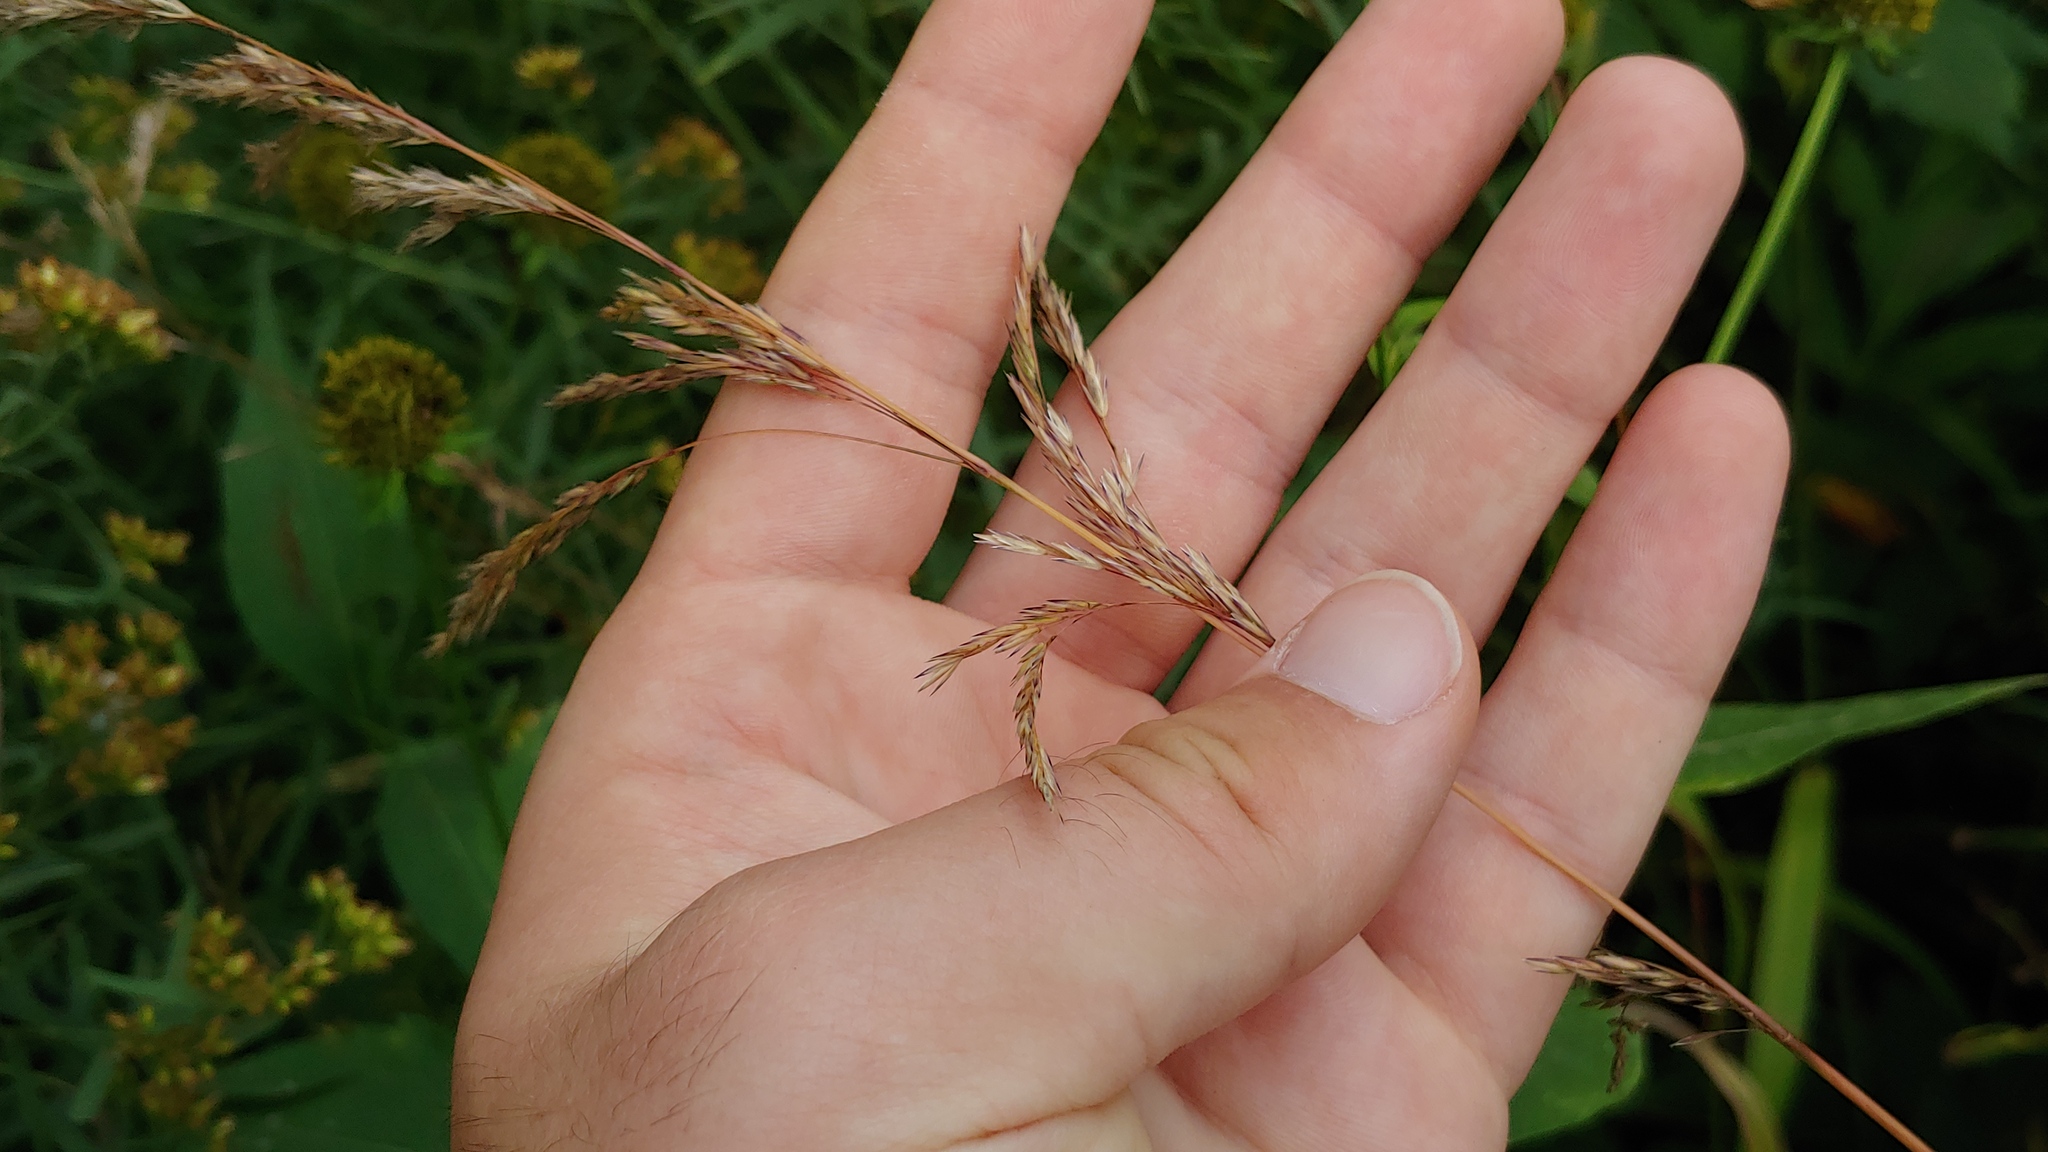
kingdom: Plantae
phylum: Tracheophyta
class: Liliopsida
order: Poales
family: Poaceae
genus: Cinna
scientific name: Cinna arundinacea
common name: Stout woodreed
